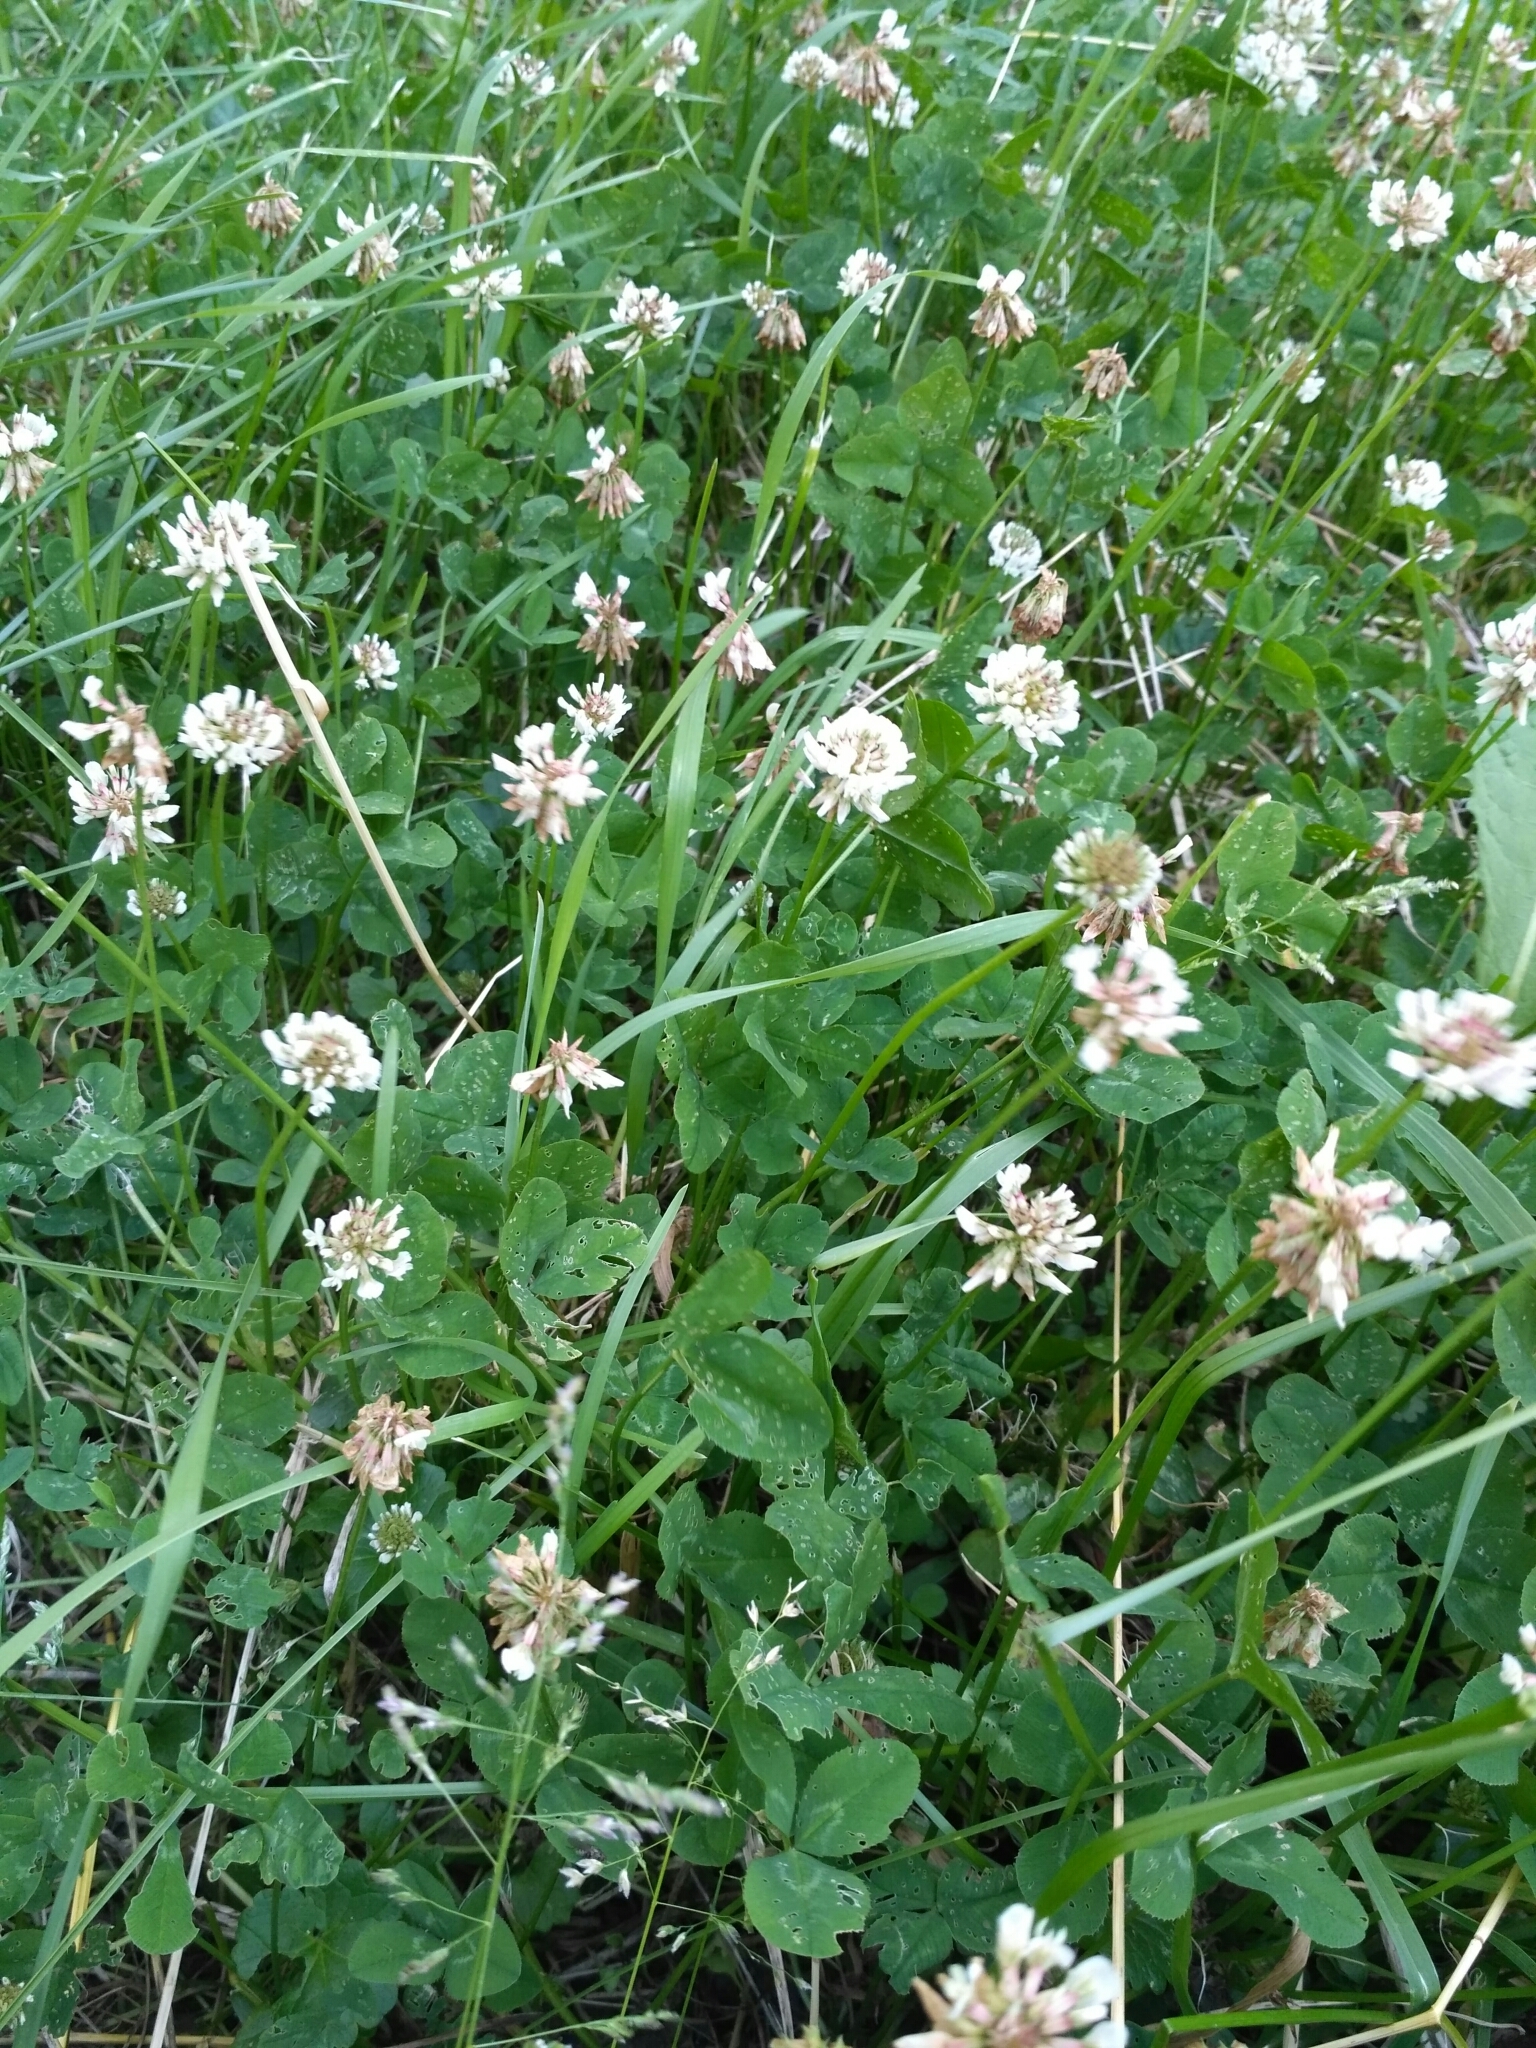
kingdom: Plantae
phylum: Tracheophyta
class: Magnoliopsida
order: Fabales
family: Fabaceae
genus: Trifolium
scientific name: Trifolium repens
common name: White clover
